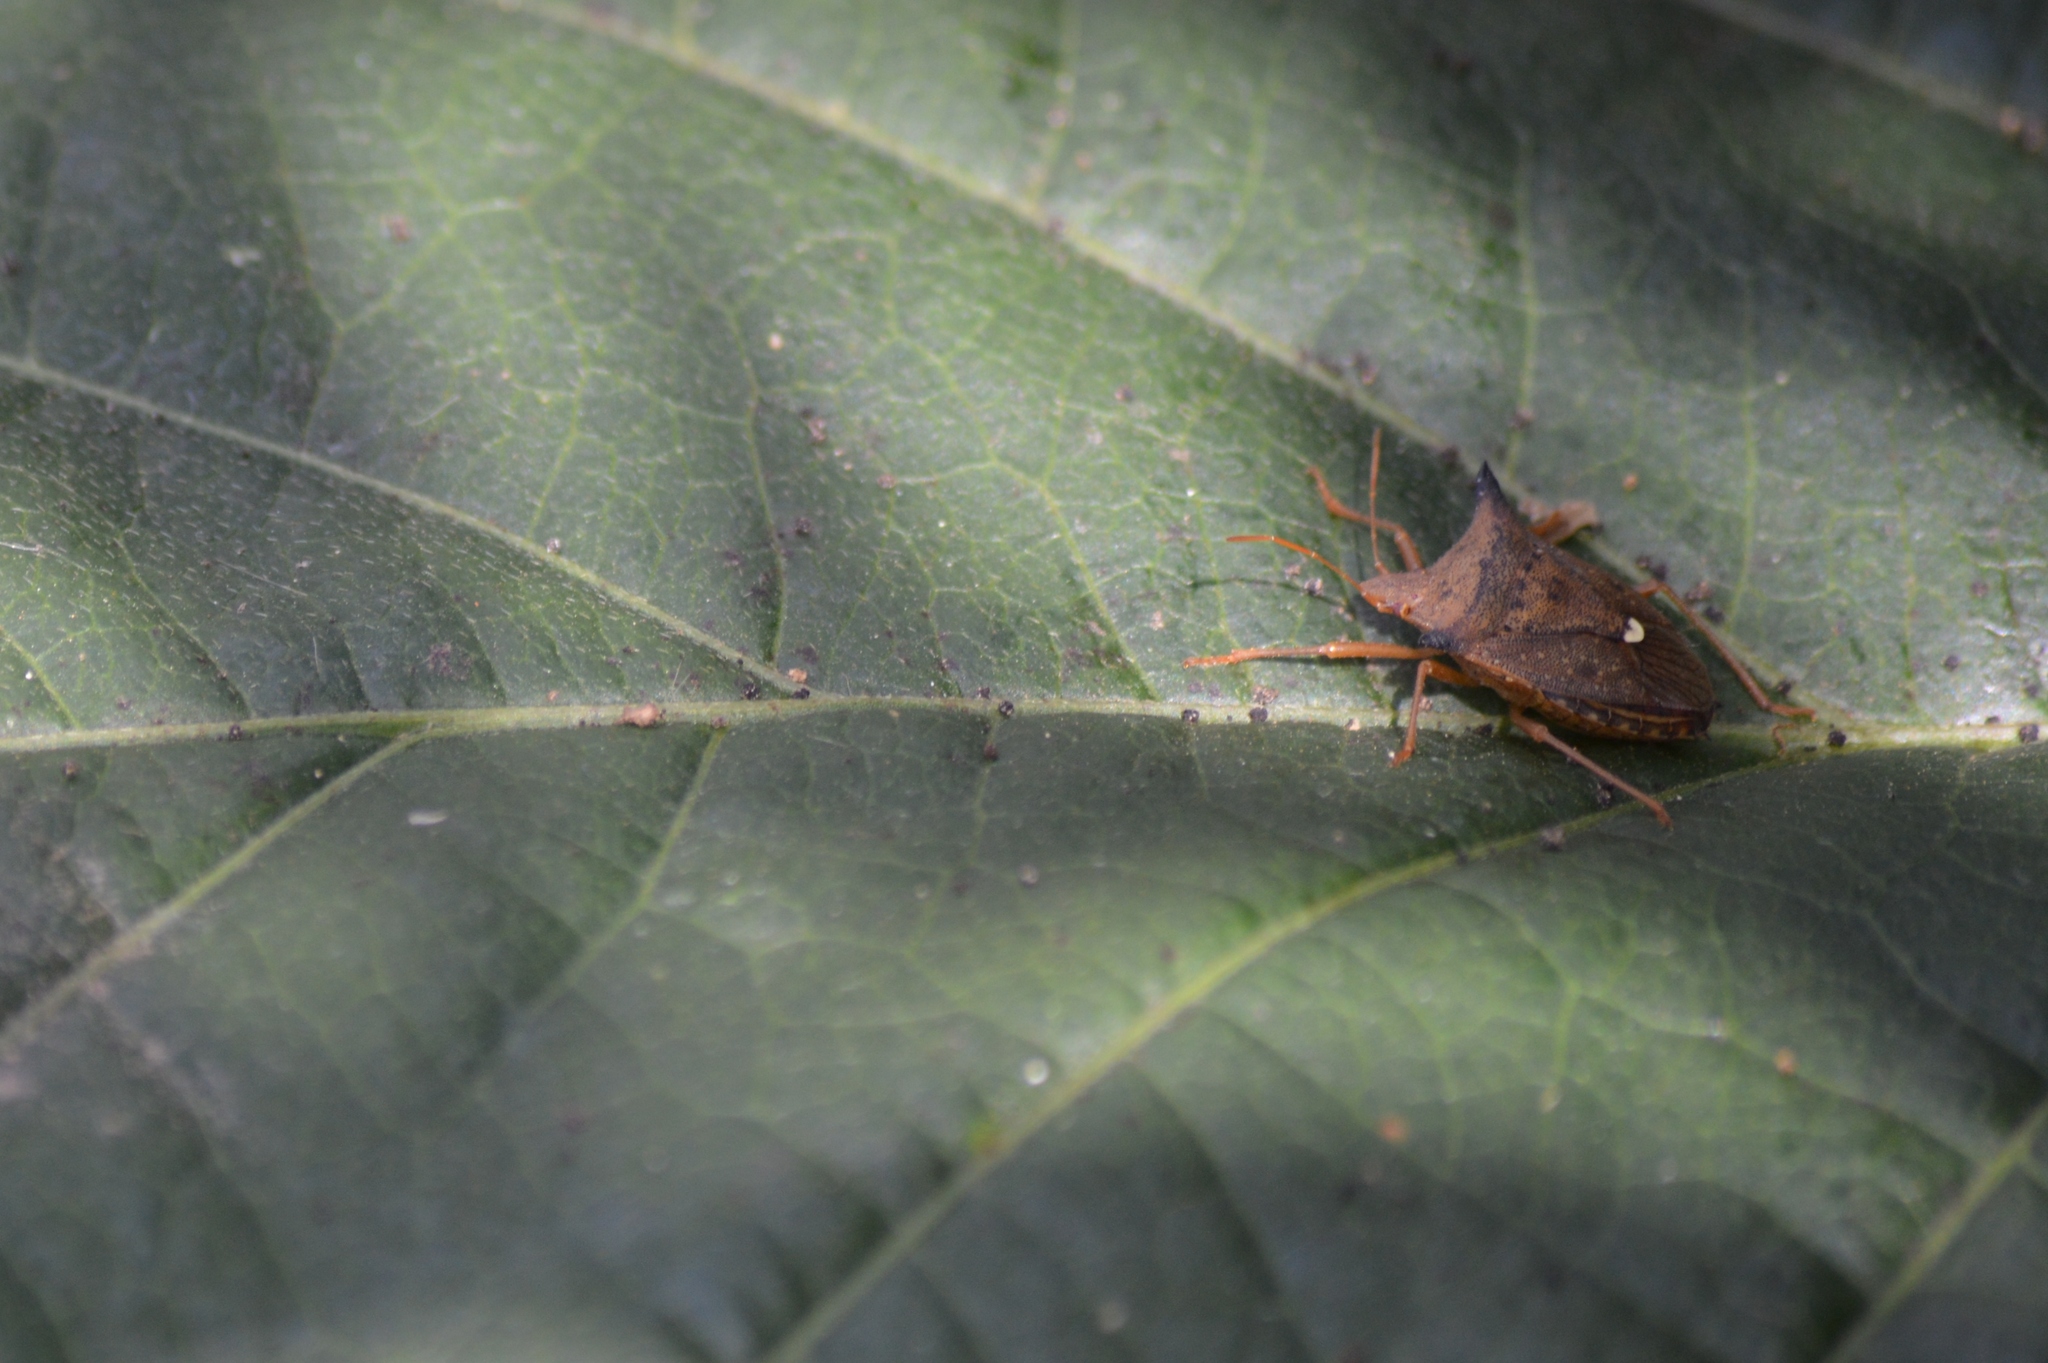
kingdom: Animalia
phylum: Arthropoda
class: Insecta
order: Hemiptera
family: Pentatomidae
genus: Euschistus
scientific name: Euschistus heros
